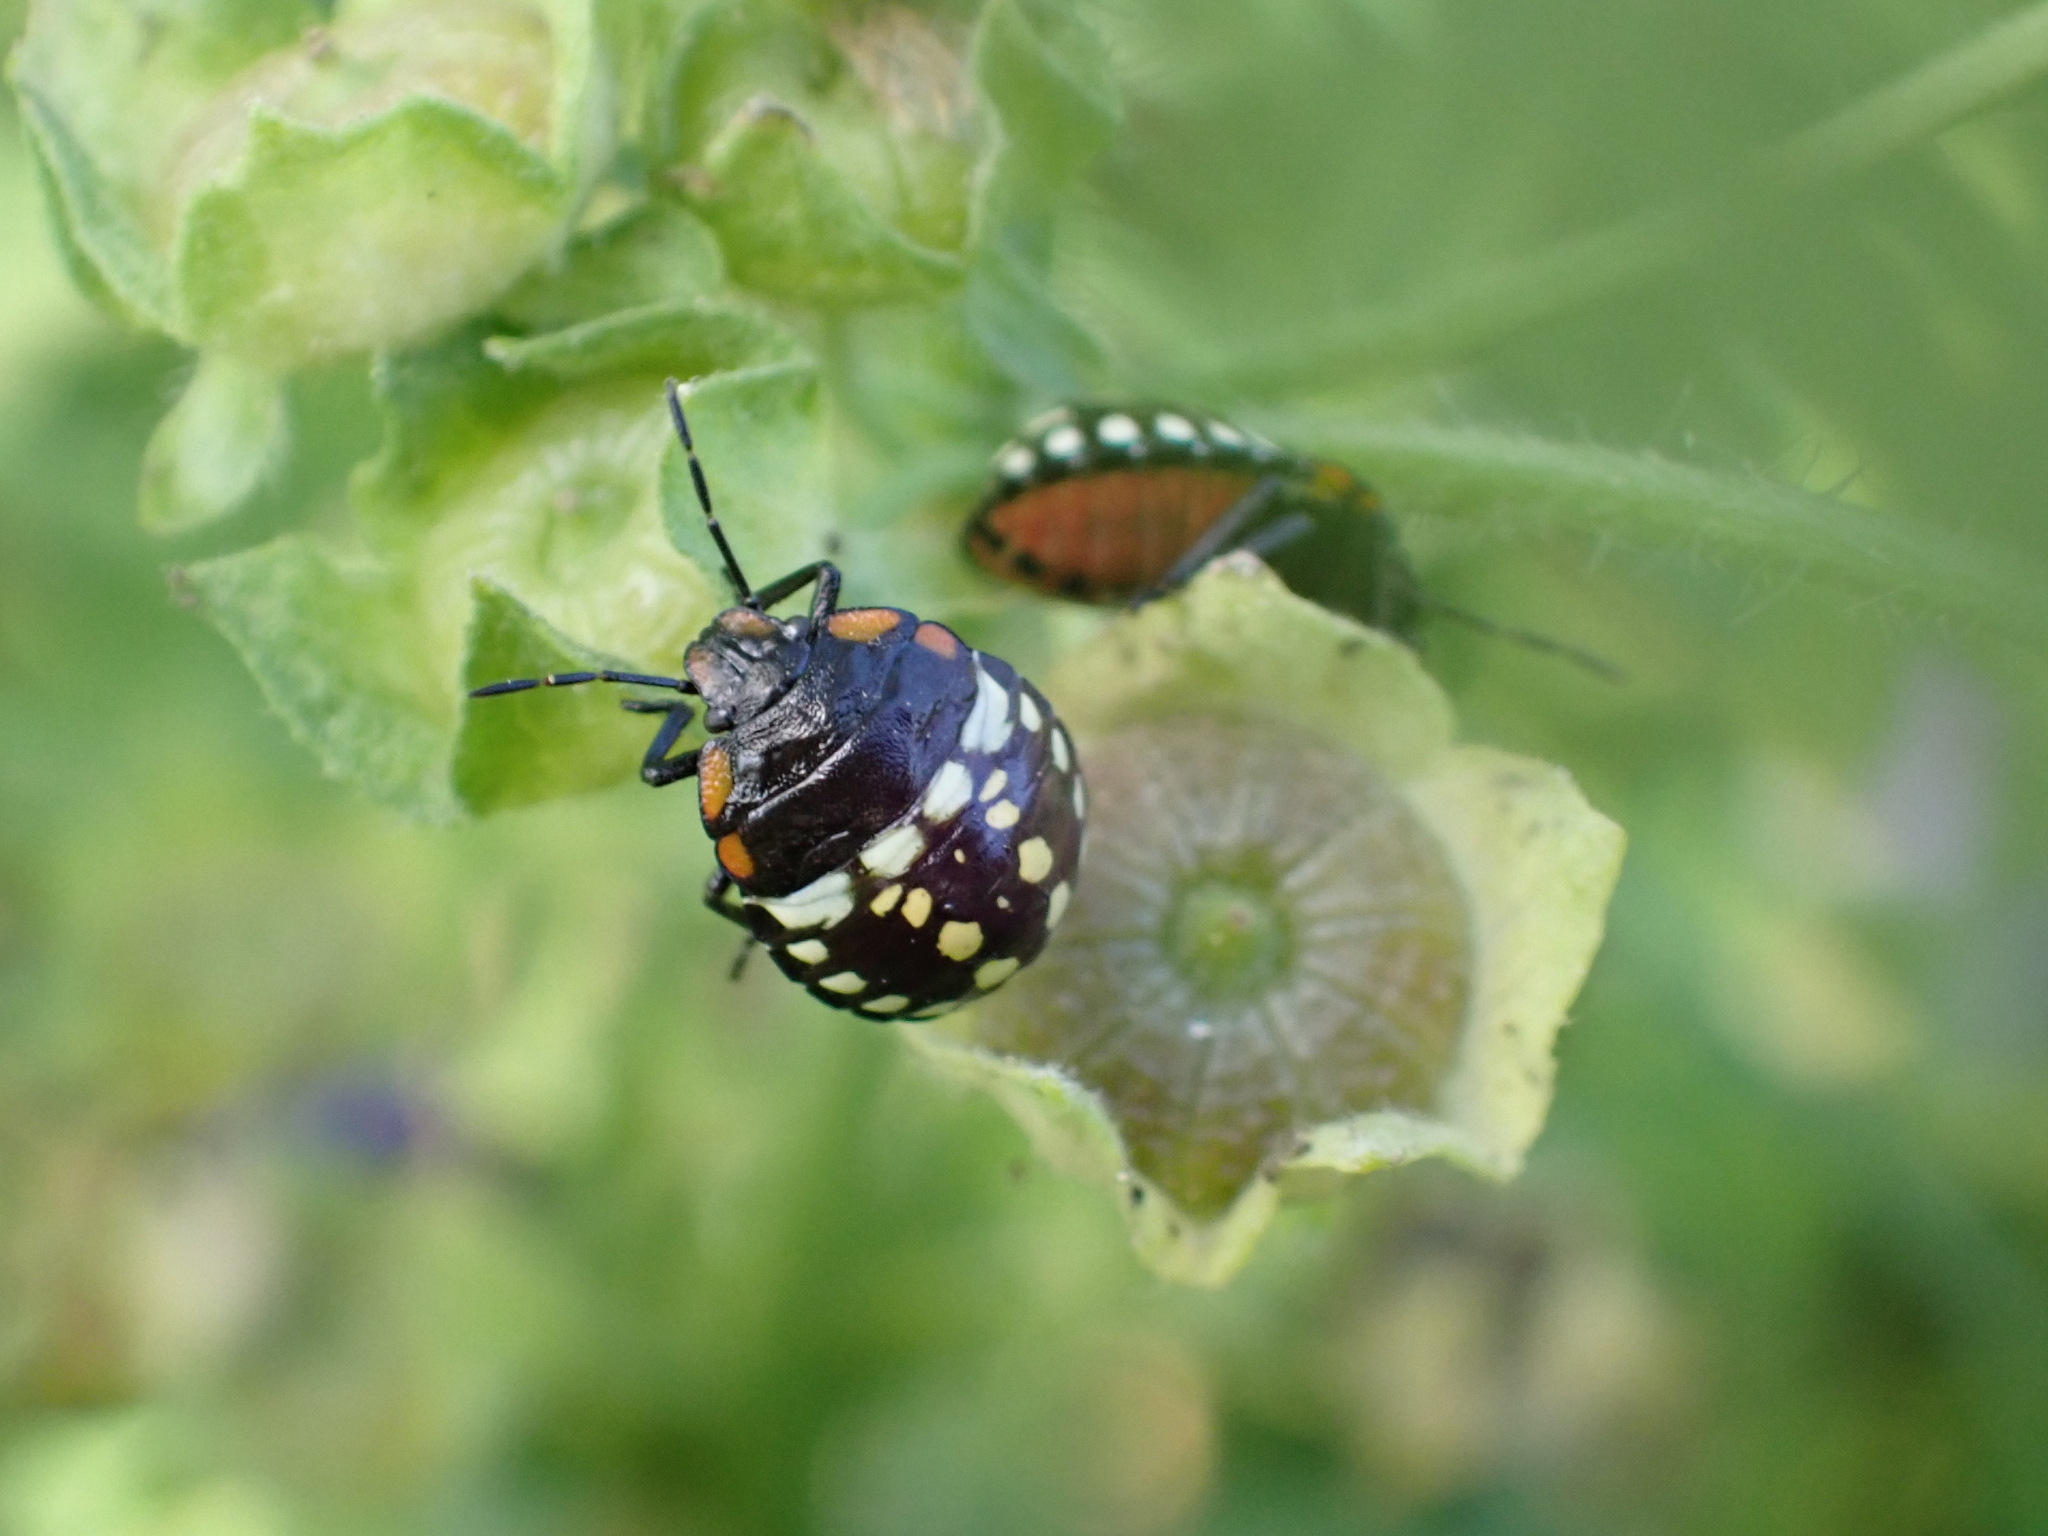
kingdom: Animalia
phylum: Arthropoda
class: Insecta
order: Hemiptera
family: Pentatomidae
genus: Nezara
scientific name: Nezara viridula
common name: Southern green stink bug
